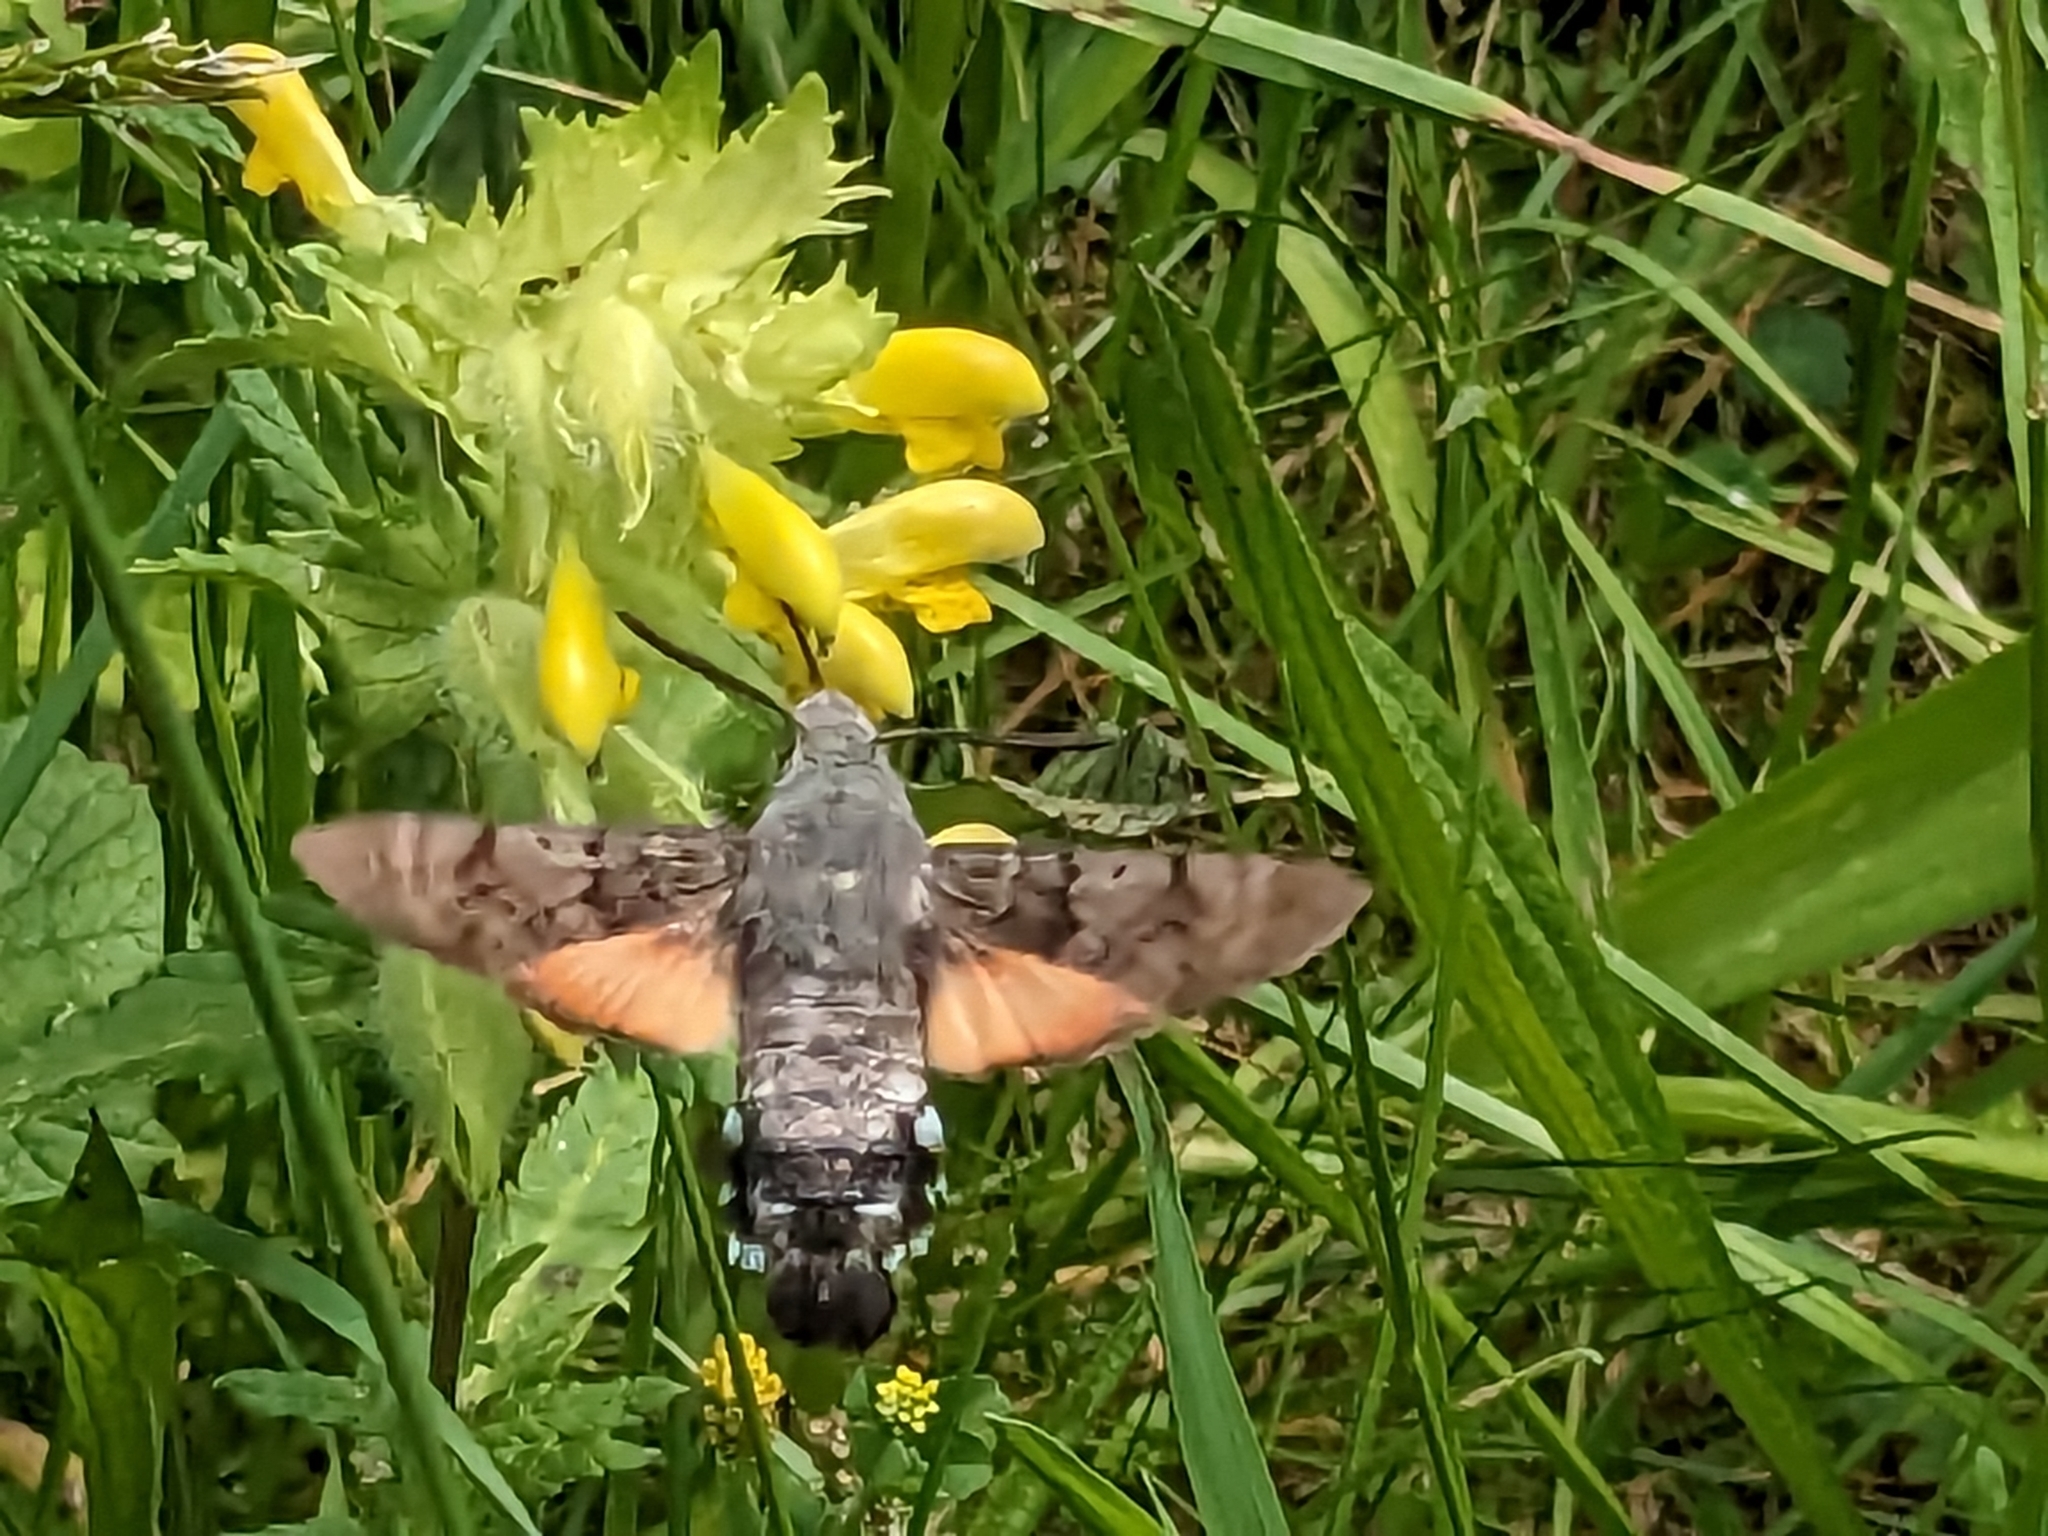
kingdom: Animalia
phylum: Arthropoda
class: Insecta
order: Lepidoptera
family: Sphingidae
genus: Macroglossum
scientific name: Macroglossum stellatarum
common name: Humming-bird hawk-moth
